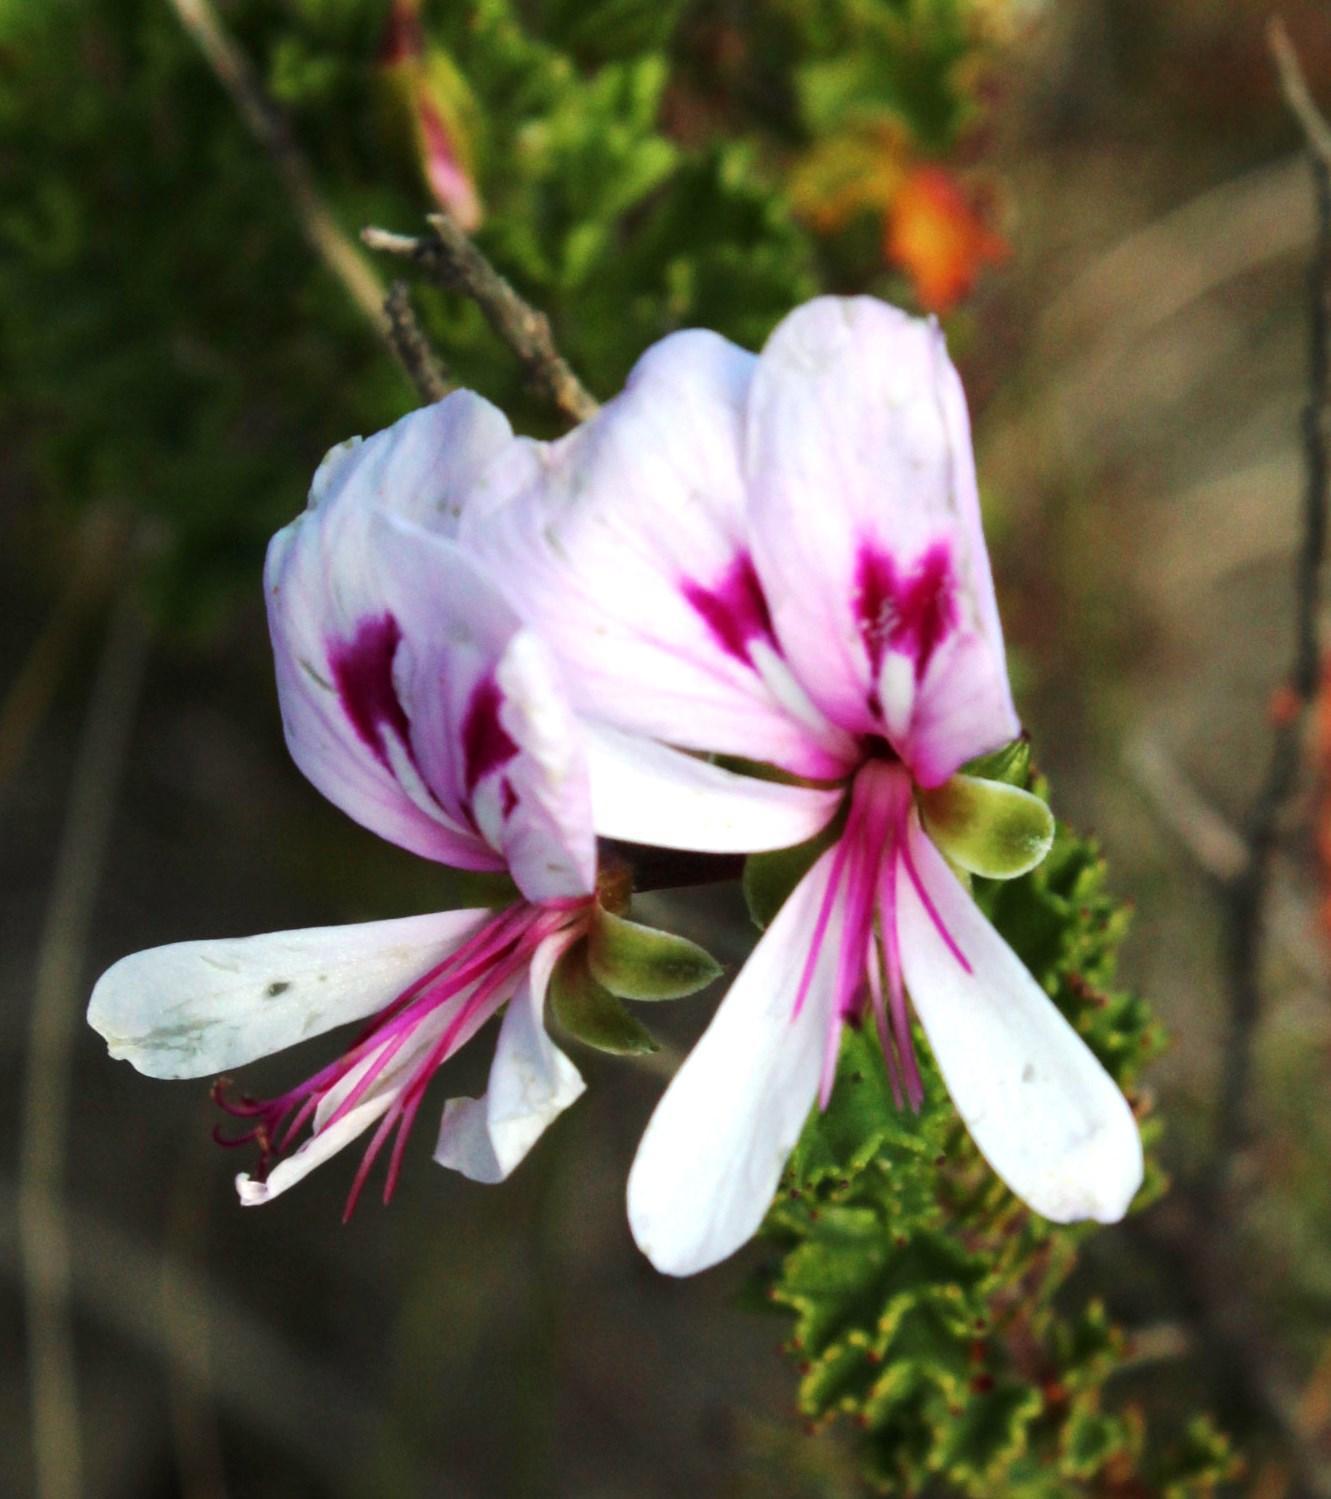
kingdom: Plantae
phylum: Tracheophyta
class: Magnoliopsida
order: Geraniales
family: Geraniaceae
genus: Pelargonium
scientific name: Pelargonium hermaniifolium
